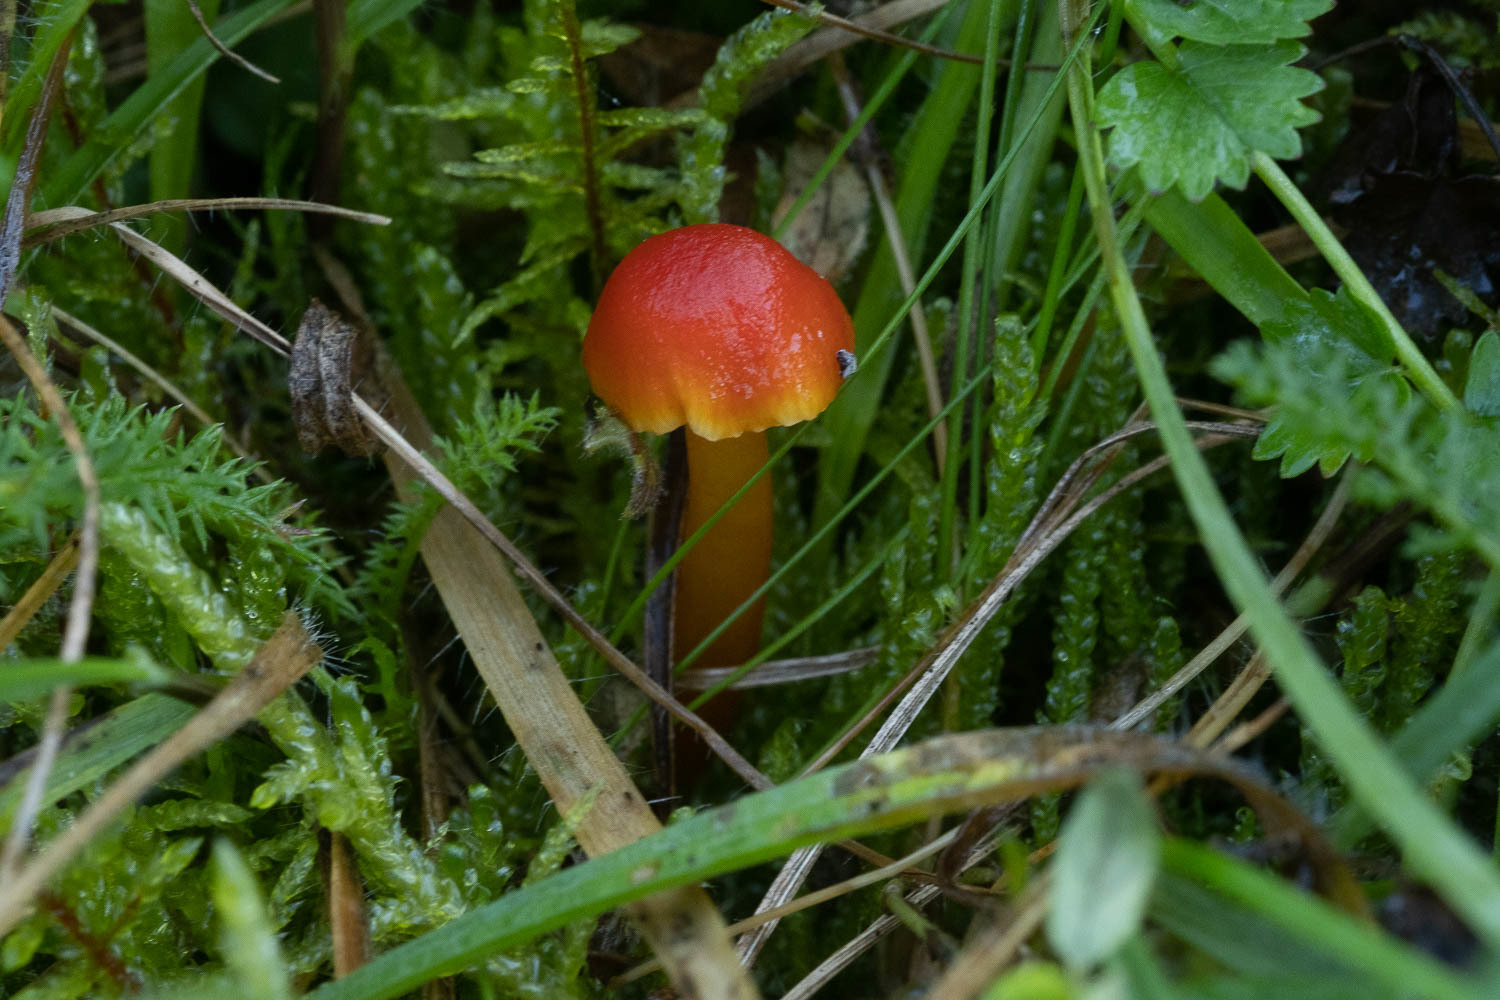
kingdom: Fungi
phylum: Basidiomycota
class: Agaricomycetes
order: Agaricales
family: Hygrophoraceae
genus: Hygrocybe
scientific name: Hygrocybe insipida
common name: Spangle waxcap
